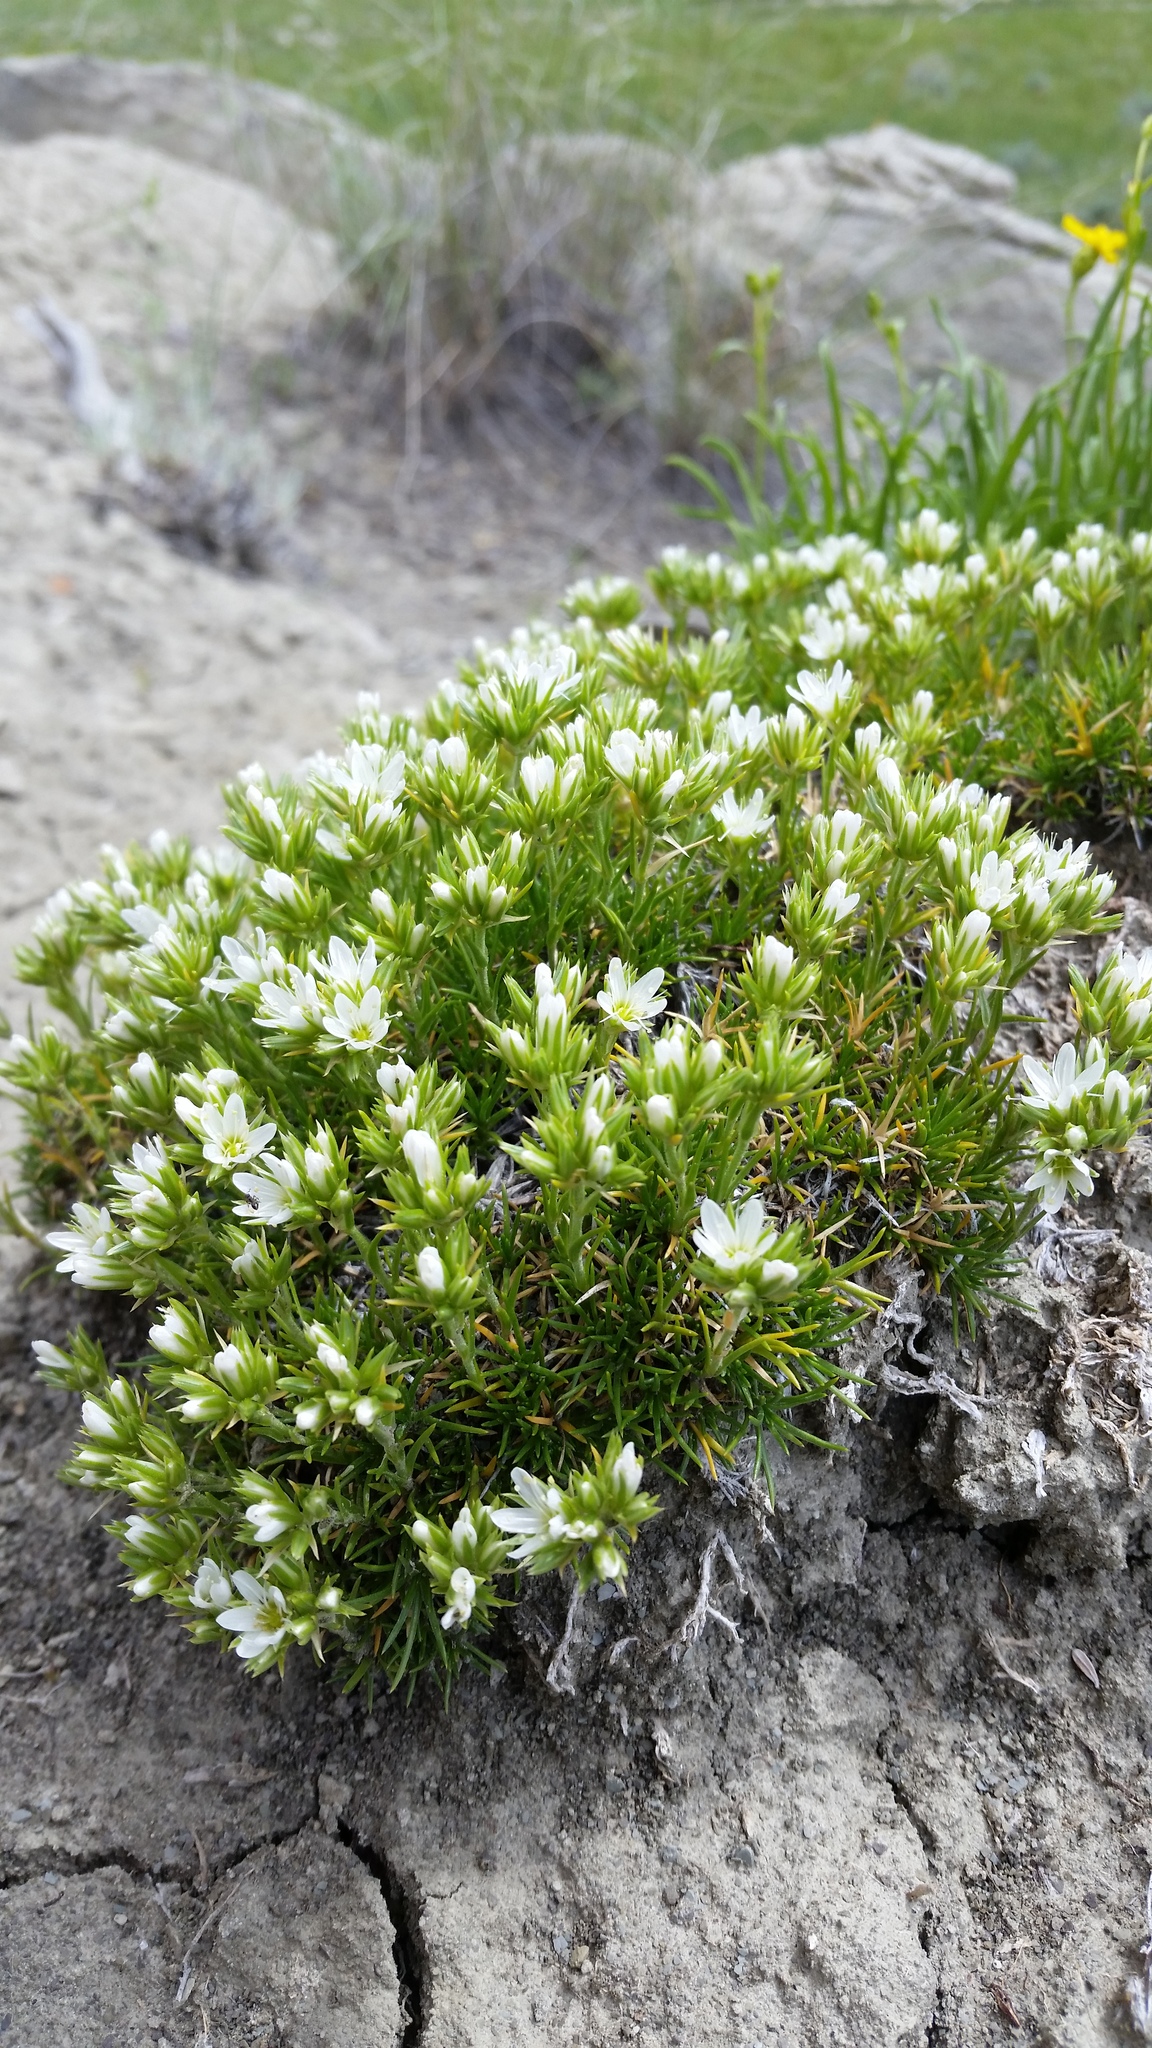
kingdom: Plantae
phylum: Tracheophyta
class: Magnoliopsida
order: Caryophyllales
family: Caryophyllaceae
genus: Eremogone
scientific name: Eremogone hookeri
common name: Hooker's sandwort
